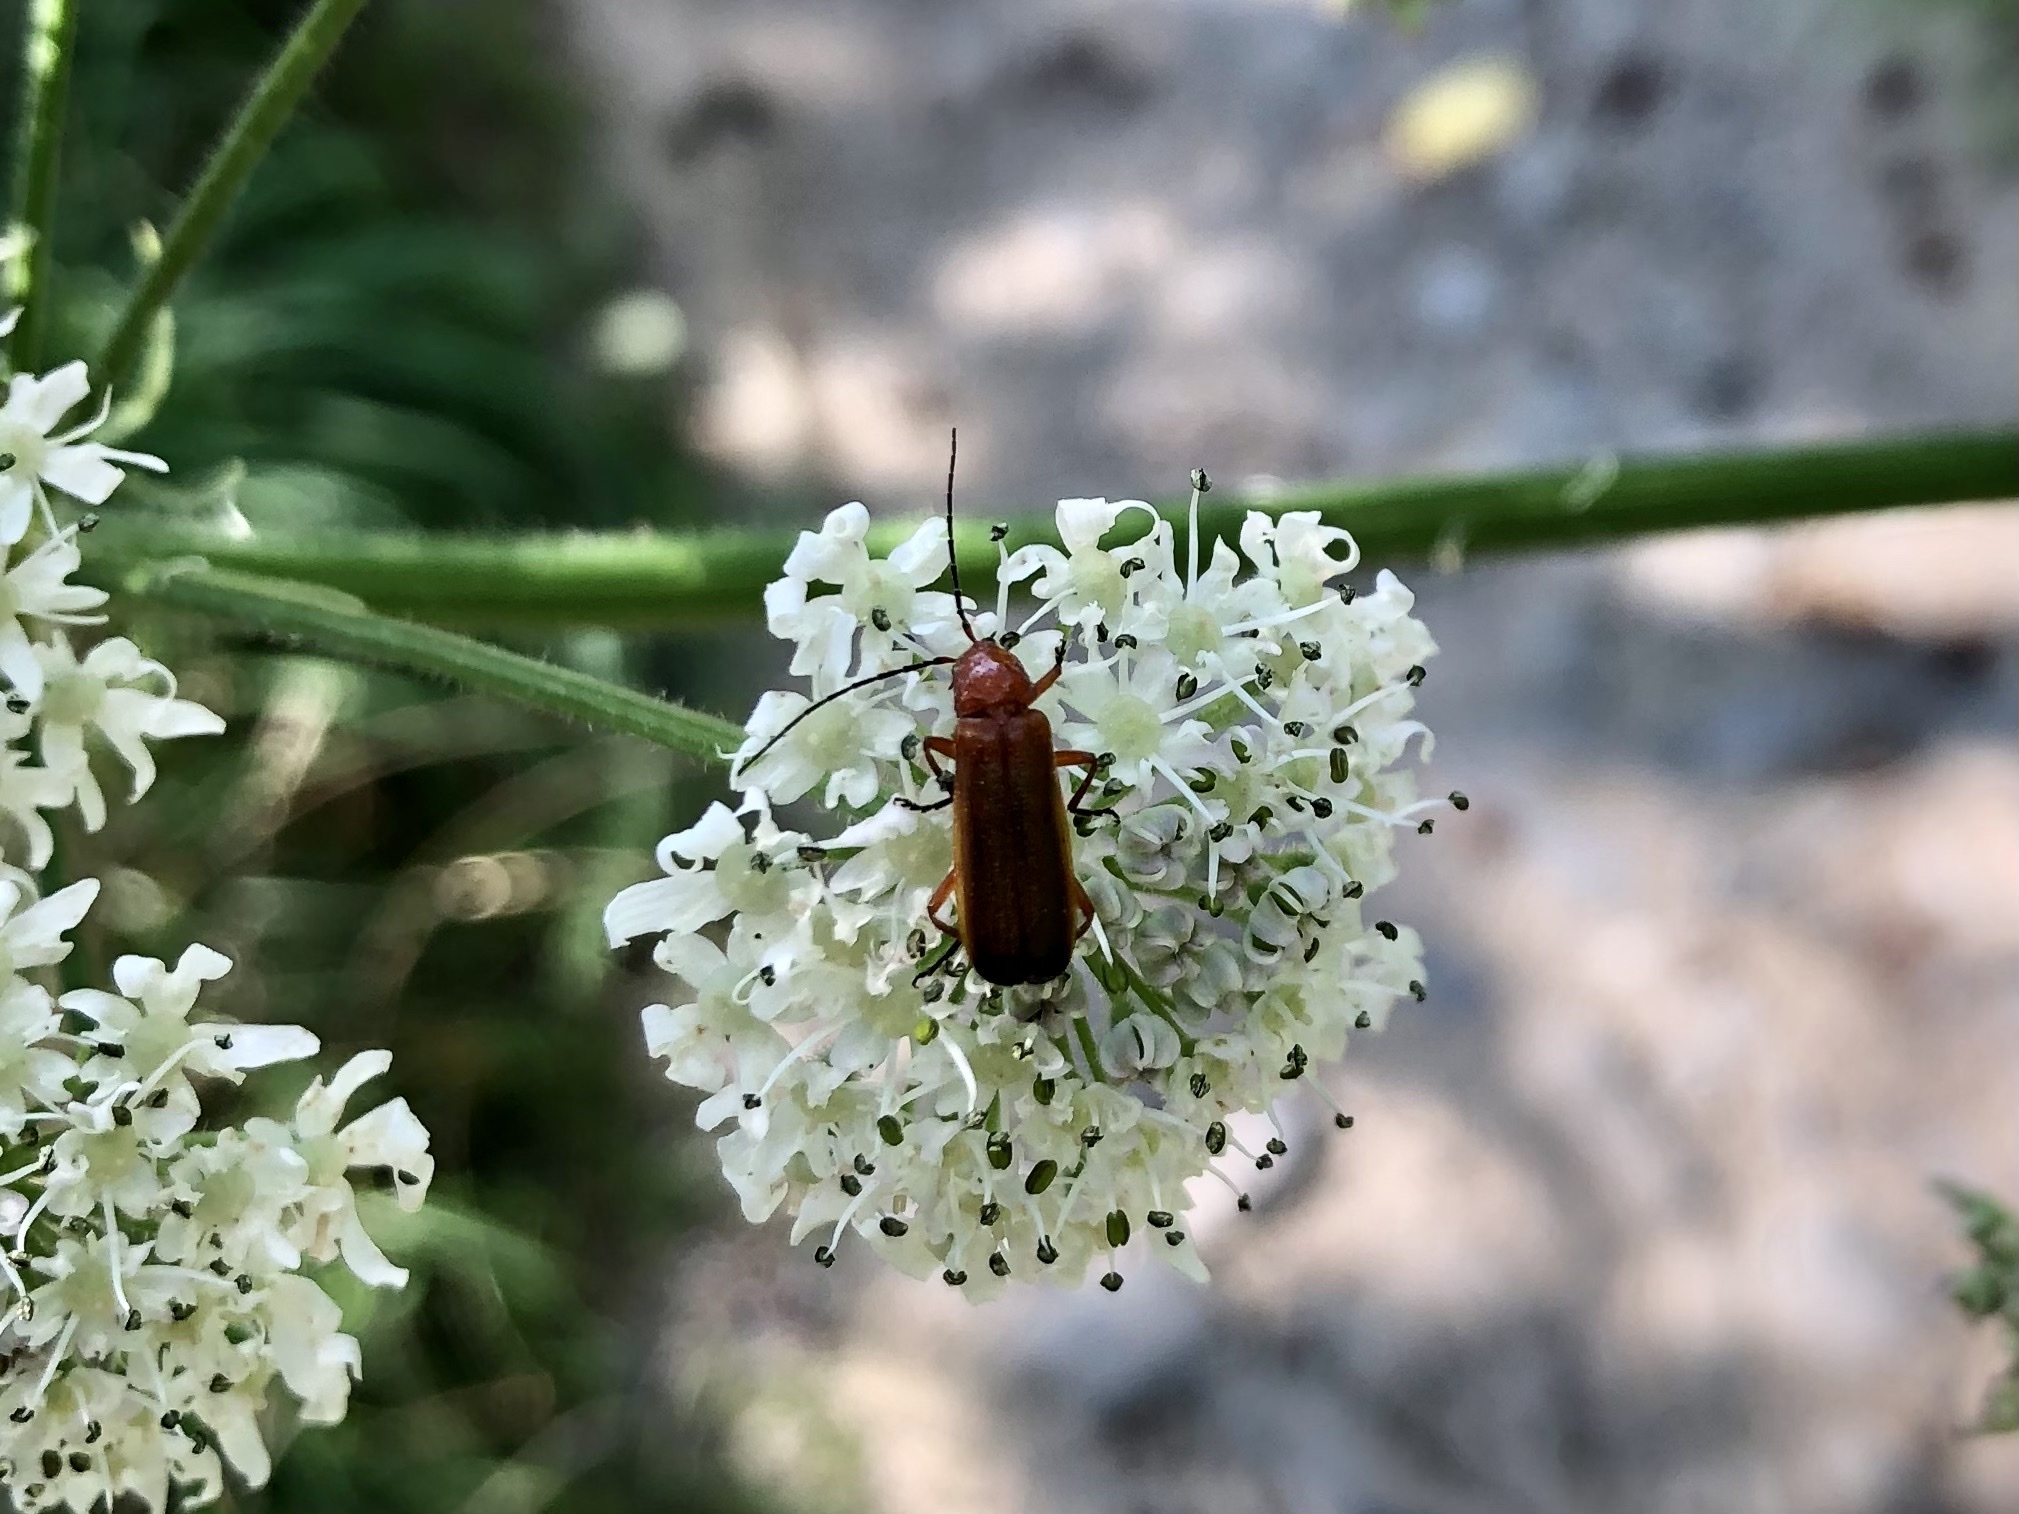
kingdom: Animalia
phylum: Arthropoda
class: Insecta
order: Coleoptera
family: Cantharidae
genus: Rhagonycha
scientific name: Rhagonycha fulva
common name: Common red soldier beetle
